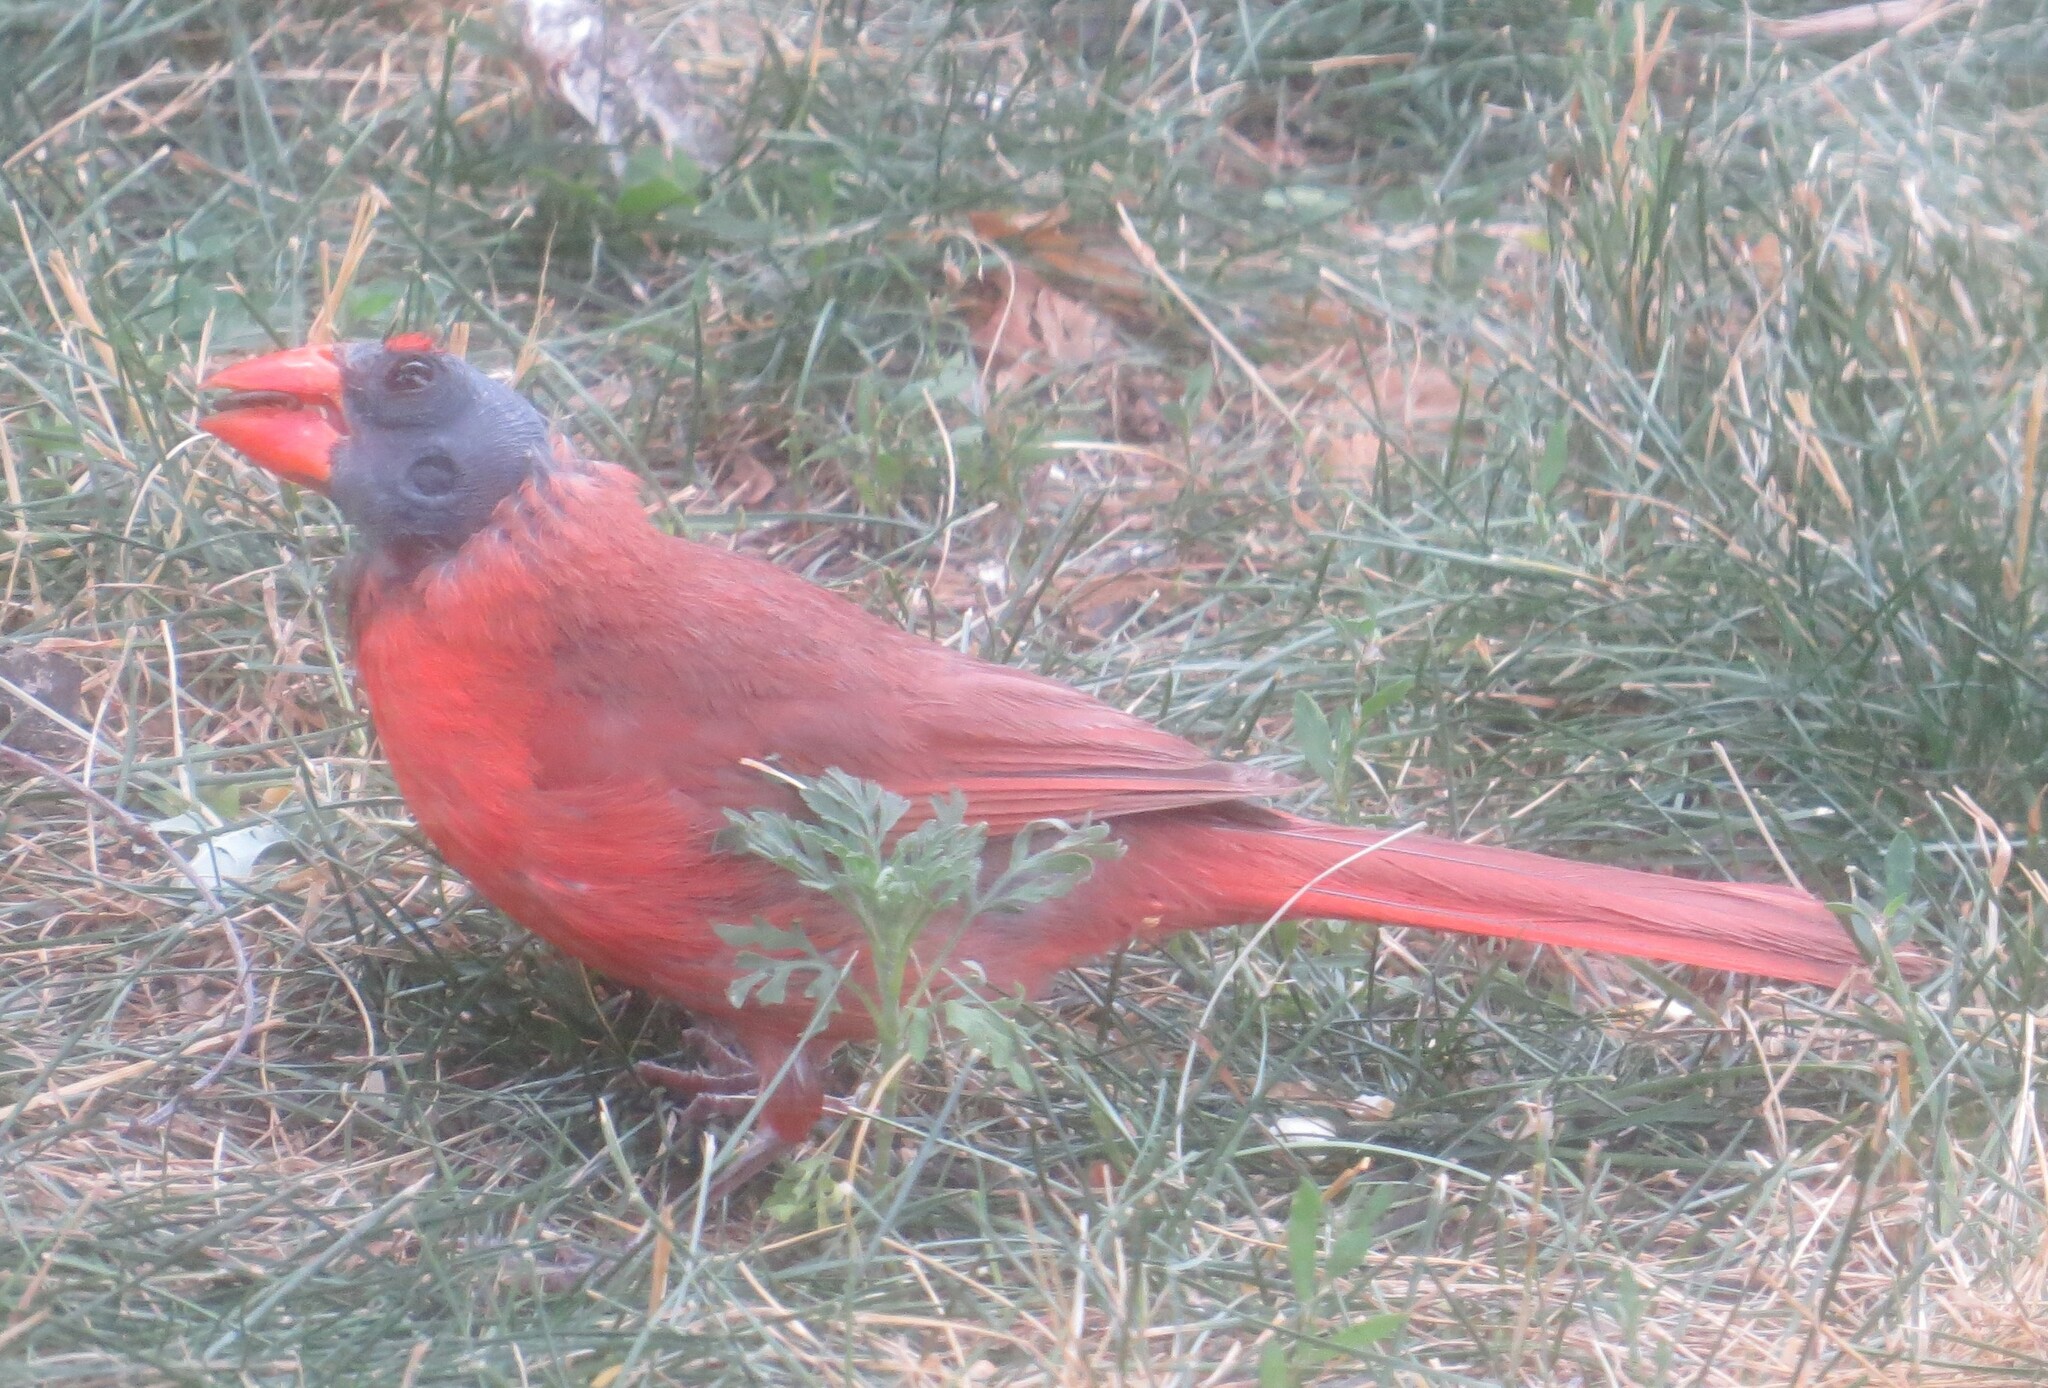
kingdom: Animalia
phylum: Chordata
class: Aves
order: Passeriformes
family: Cardinalidae
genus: Cardinalis
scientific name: Cardinalis cardinalis
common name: Northern cardinal
